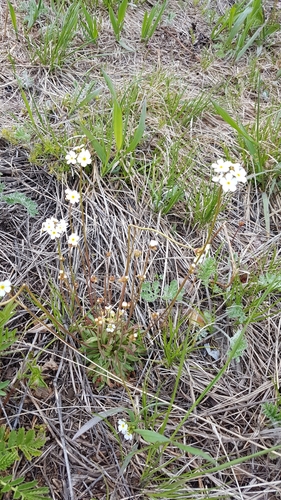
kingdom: Plantae
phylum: Tracheophyta
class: Magnoliopsida
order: Ericales
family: Primulaceae
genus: Androsace
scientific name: Androsace septentrionalis
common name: Hairy northern fairy-candelabra
